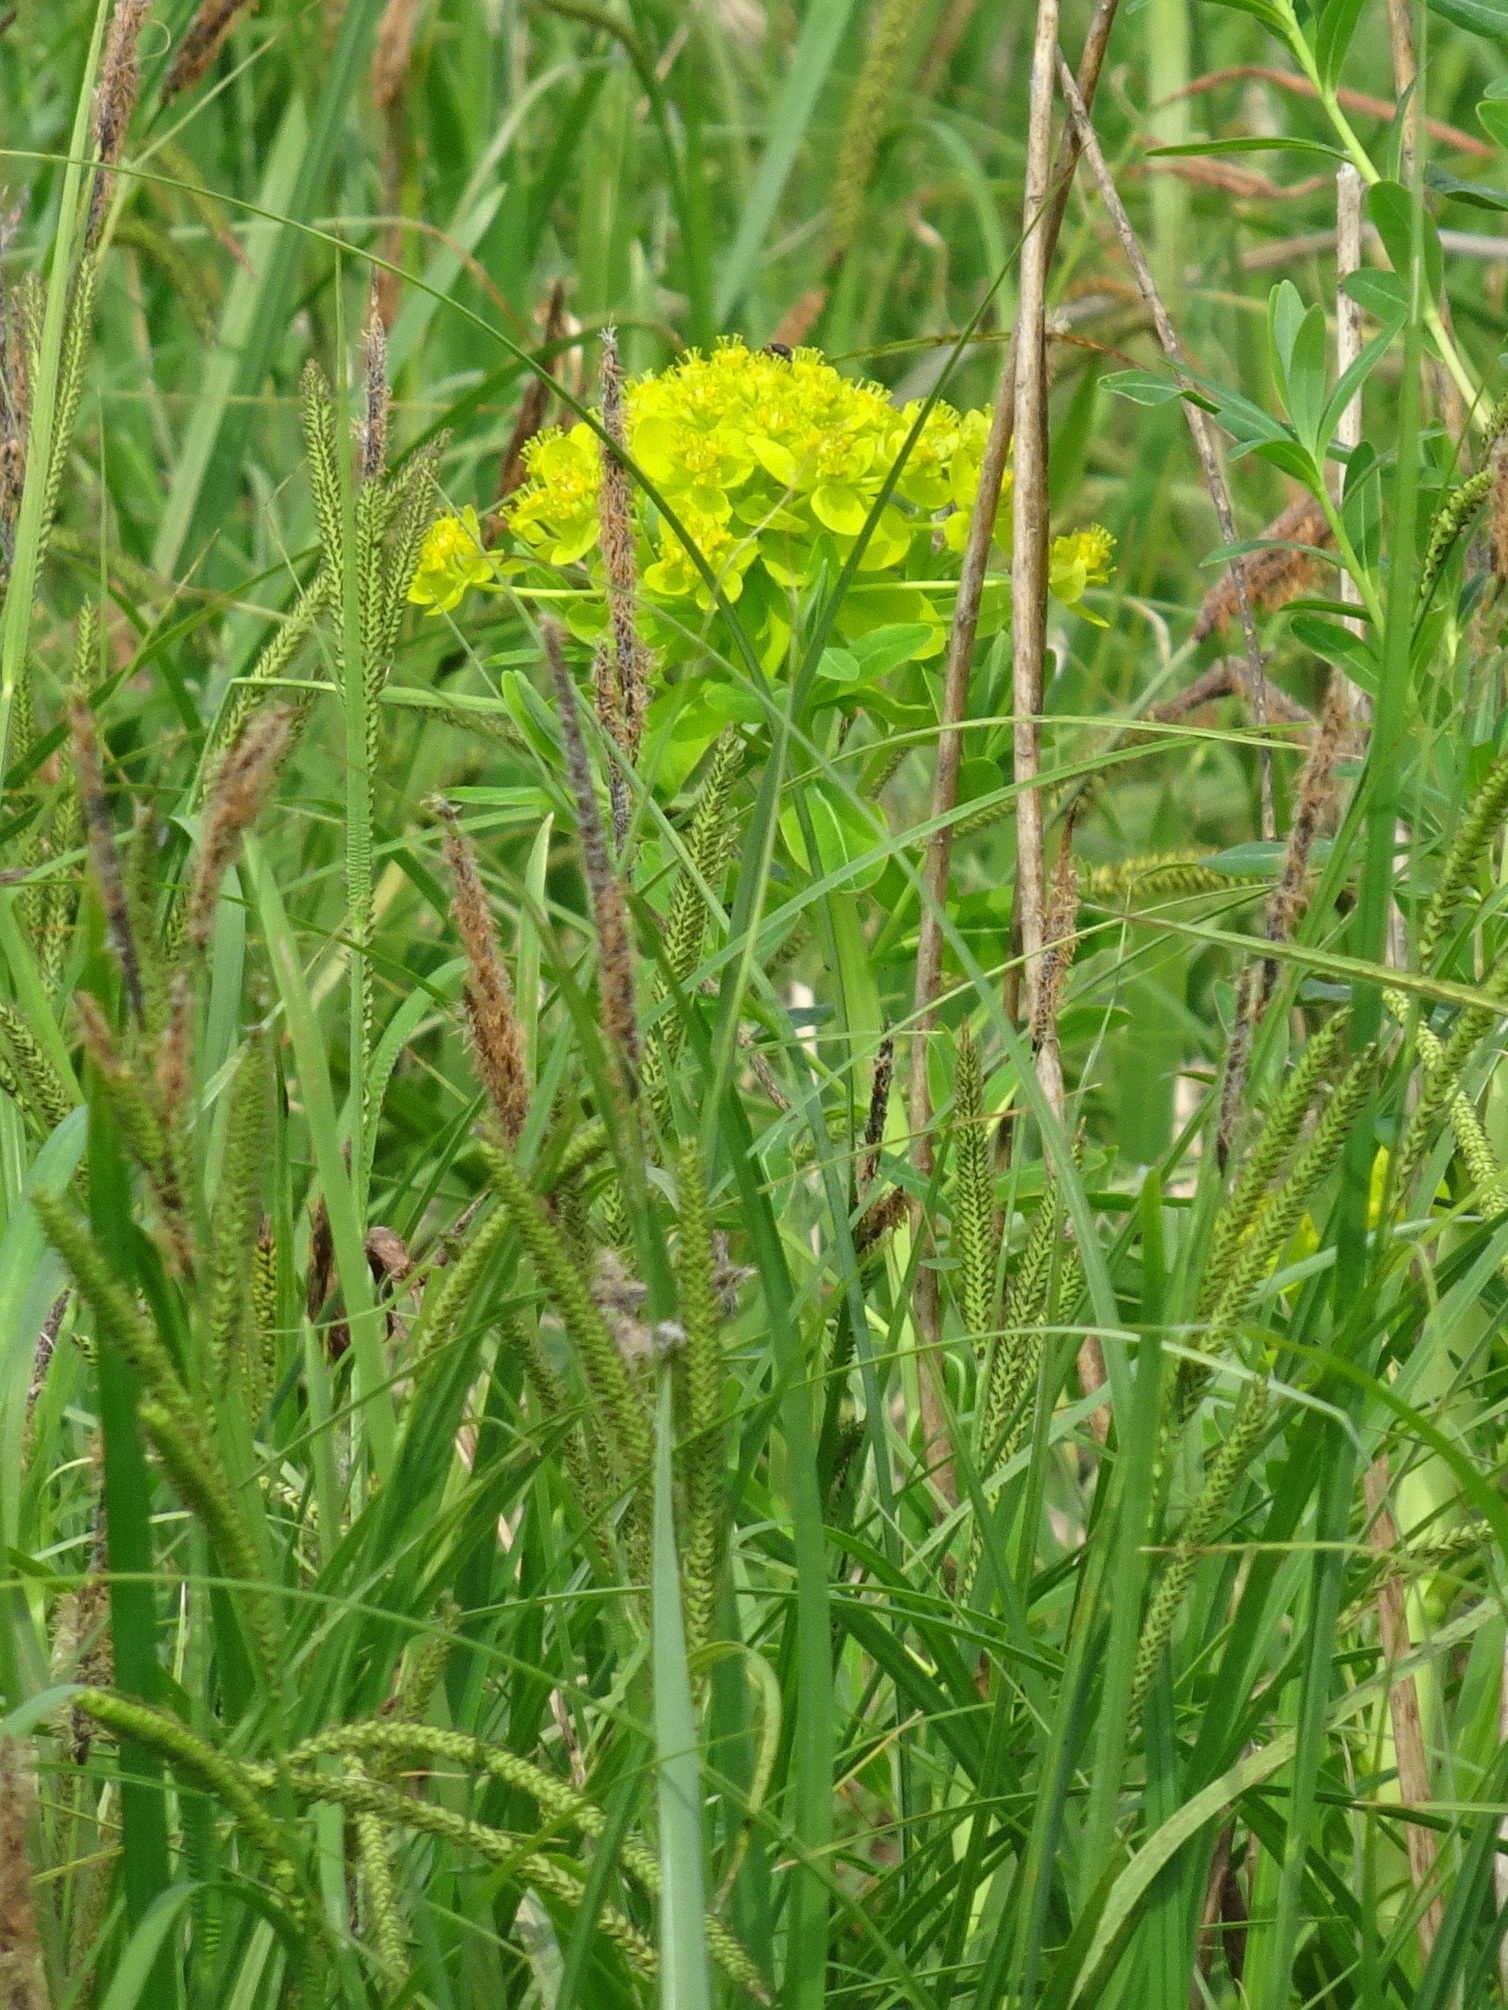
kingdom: Plantae
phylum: Tracheophyta
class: Magnoliopsida
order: Malpighiales
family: Euphorbiaceae
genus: Euphorbia
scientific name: Euphorbia palustris
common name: Marsh spurge
